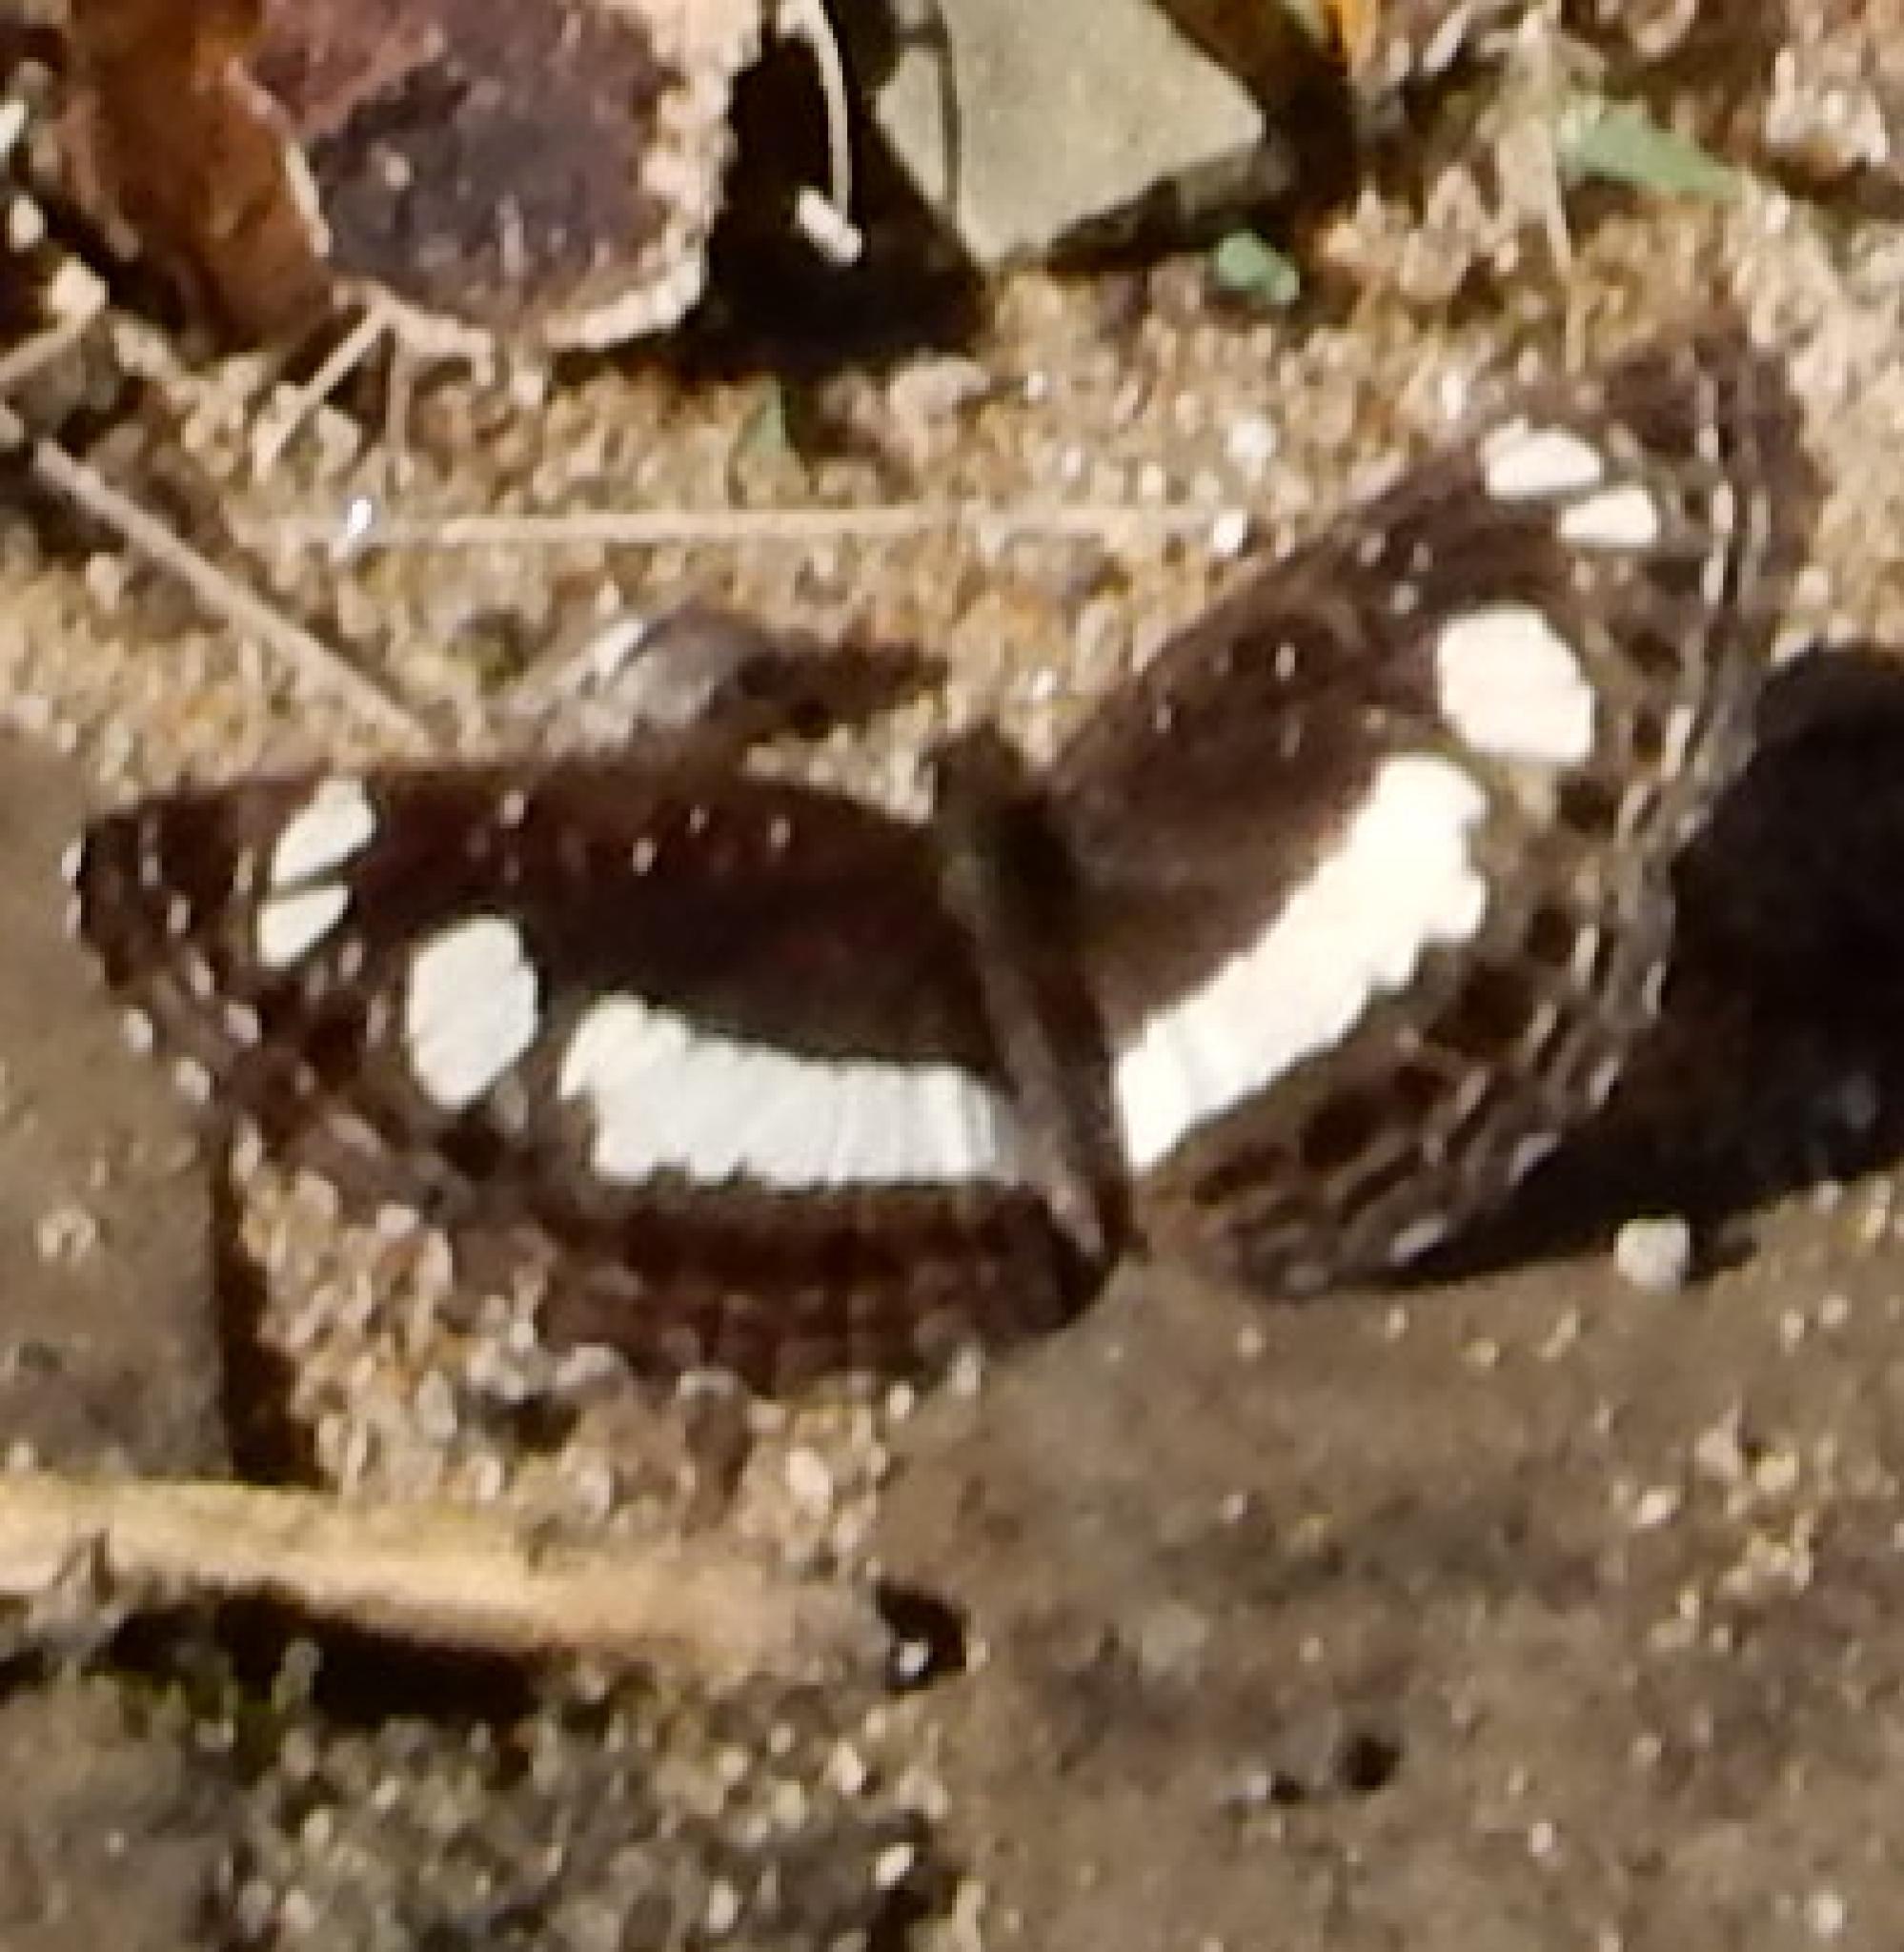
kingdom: Animalia
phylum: Arthropoda
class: Insecta
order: Lepidoptera
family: Nymphalidae
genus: Neptis
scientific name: Neptis saclava
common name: Small spotted sailor
